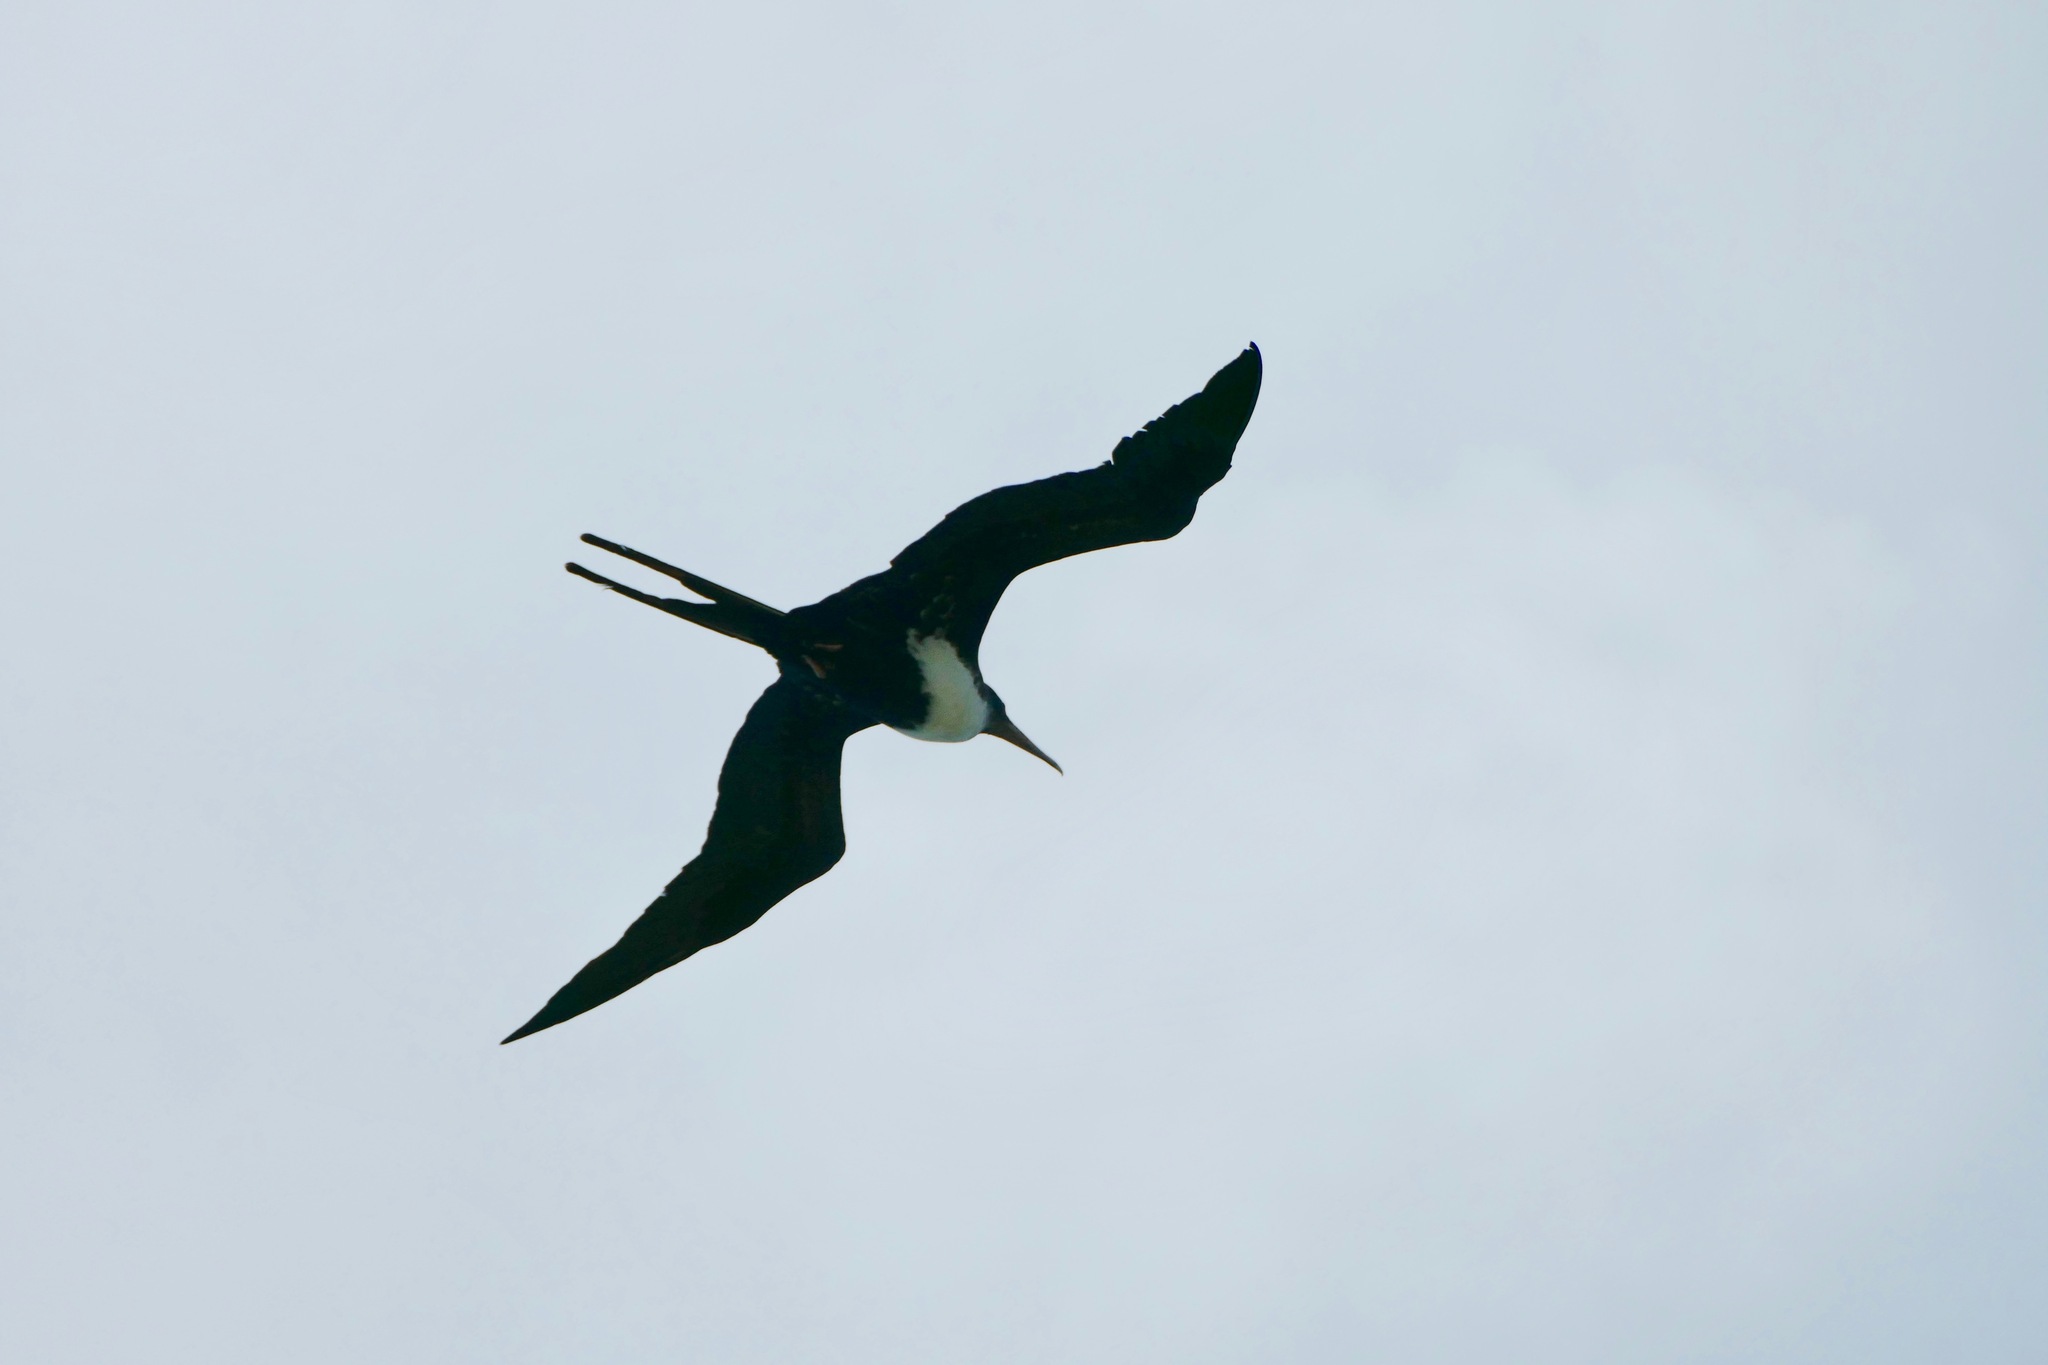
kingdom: Animalia
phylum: Chordata
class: Aves
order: Suliformes
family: Fregatidae
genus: Fregata
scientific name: Fregata minor
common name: Great frigatebird
